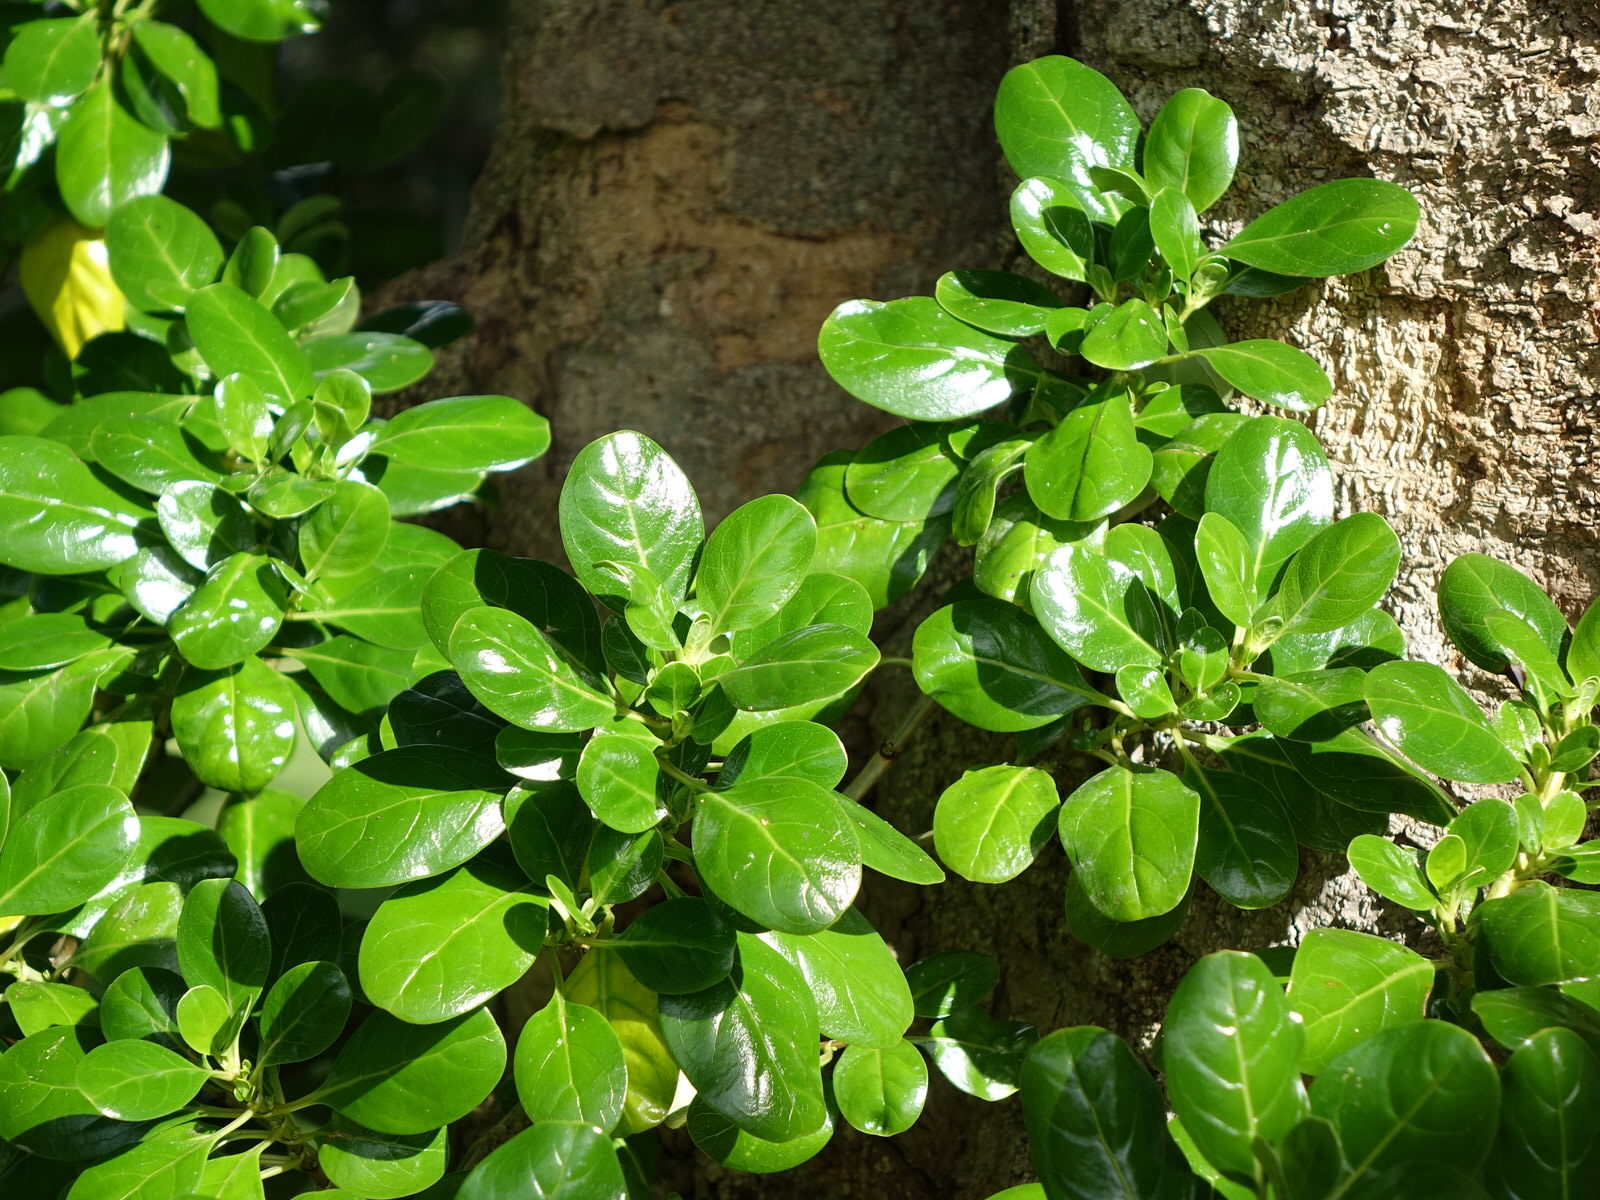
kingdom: Plantae
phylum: Tracheophyta
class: Magnoliopsida
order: Gentianales
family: Rubiaceae
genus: Coprosma
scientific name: Coprosma repens
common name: Tree bedstraw
